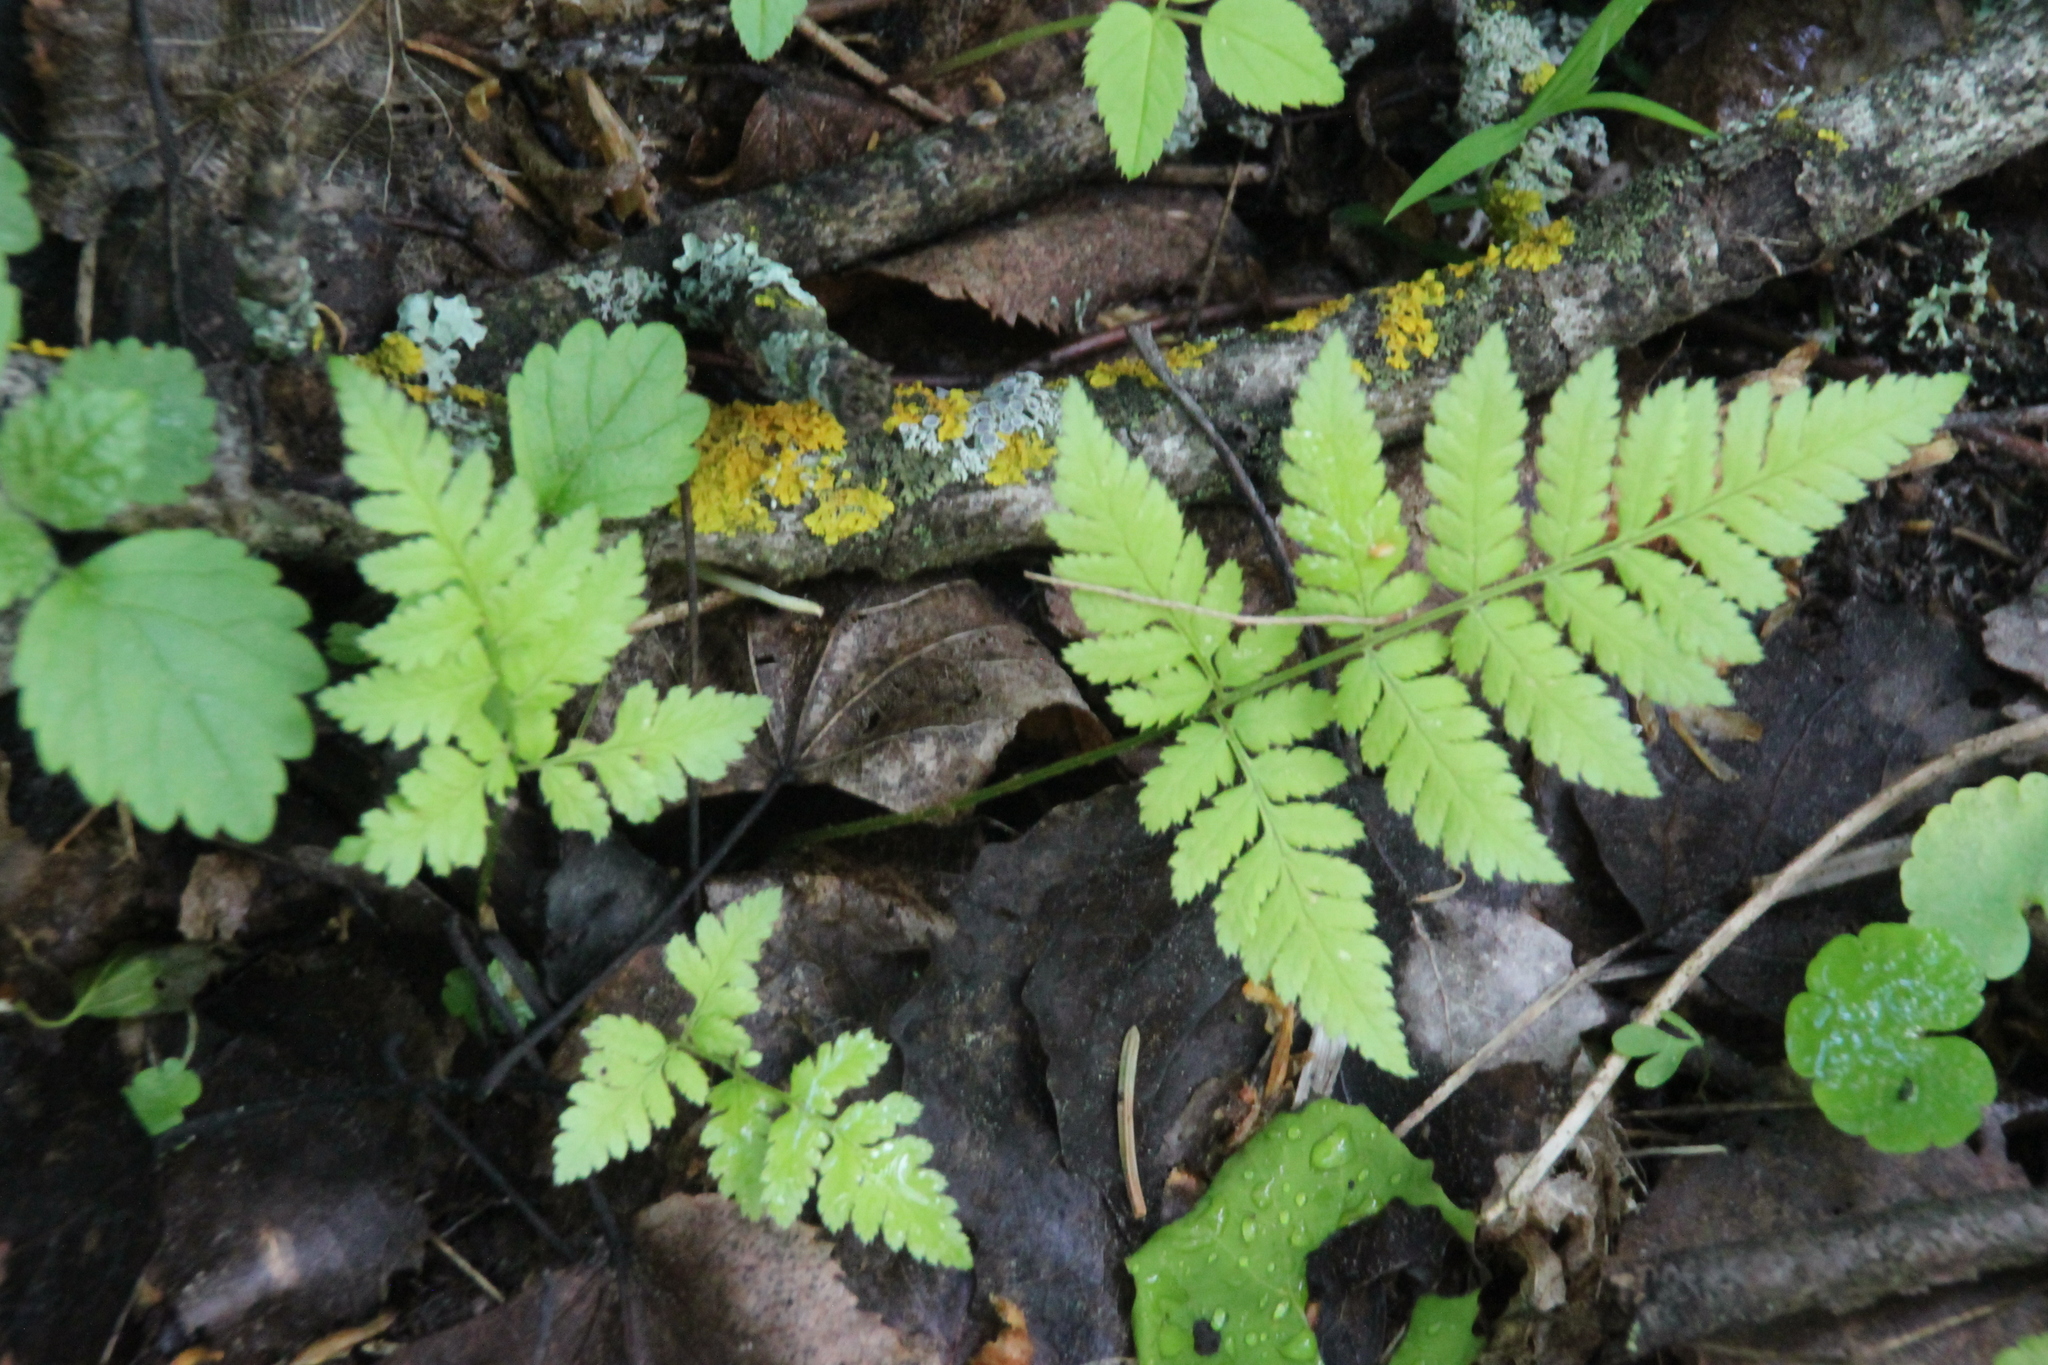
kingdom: Plantae
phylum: Tracheophyta
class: Polypodiopsida
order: Polypodiales
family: Dryopteridaceae
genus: Dryopteris
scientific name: Dryopteris carthusiana
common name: Narrow buckler-fern
